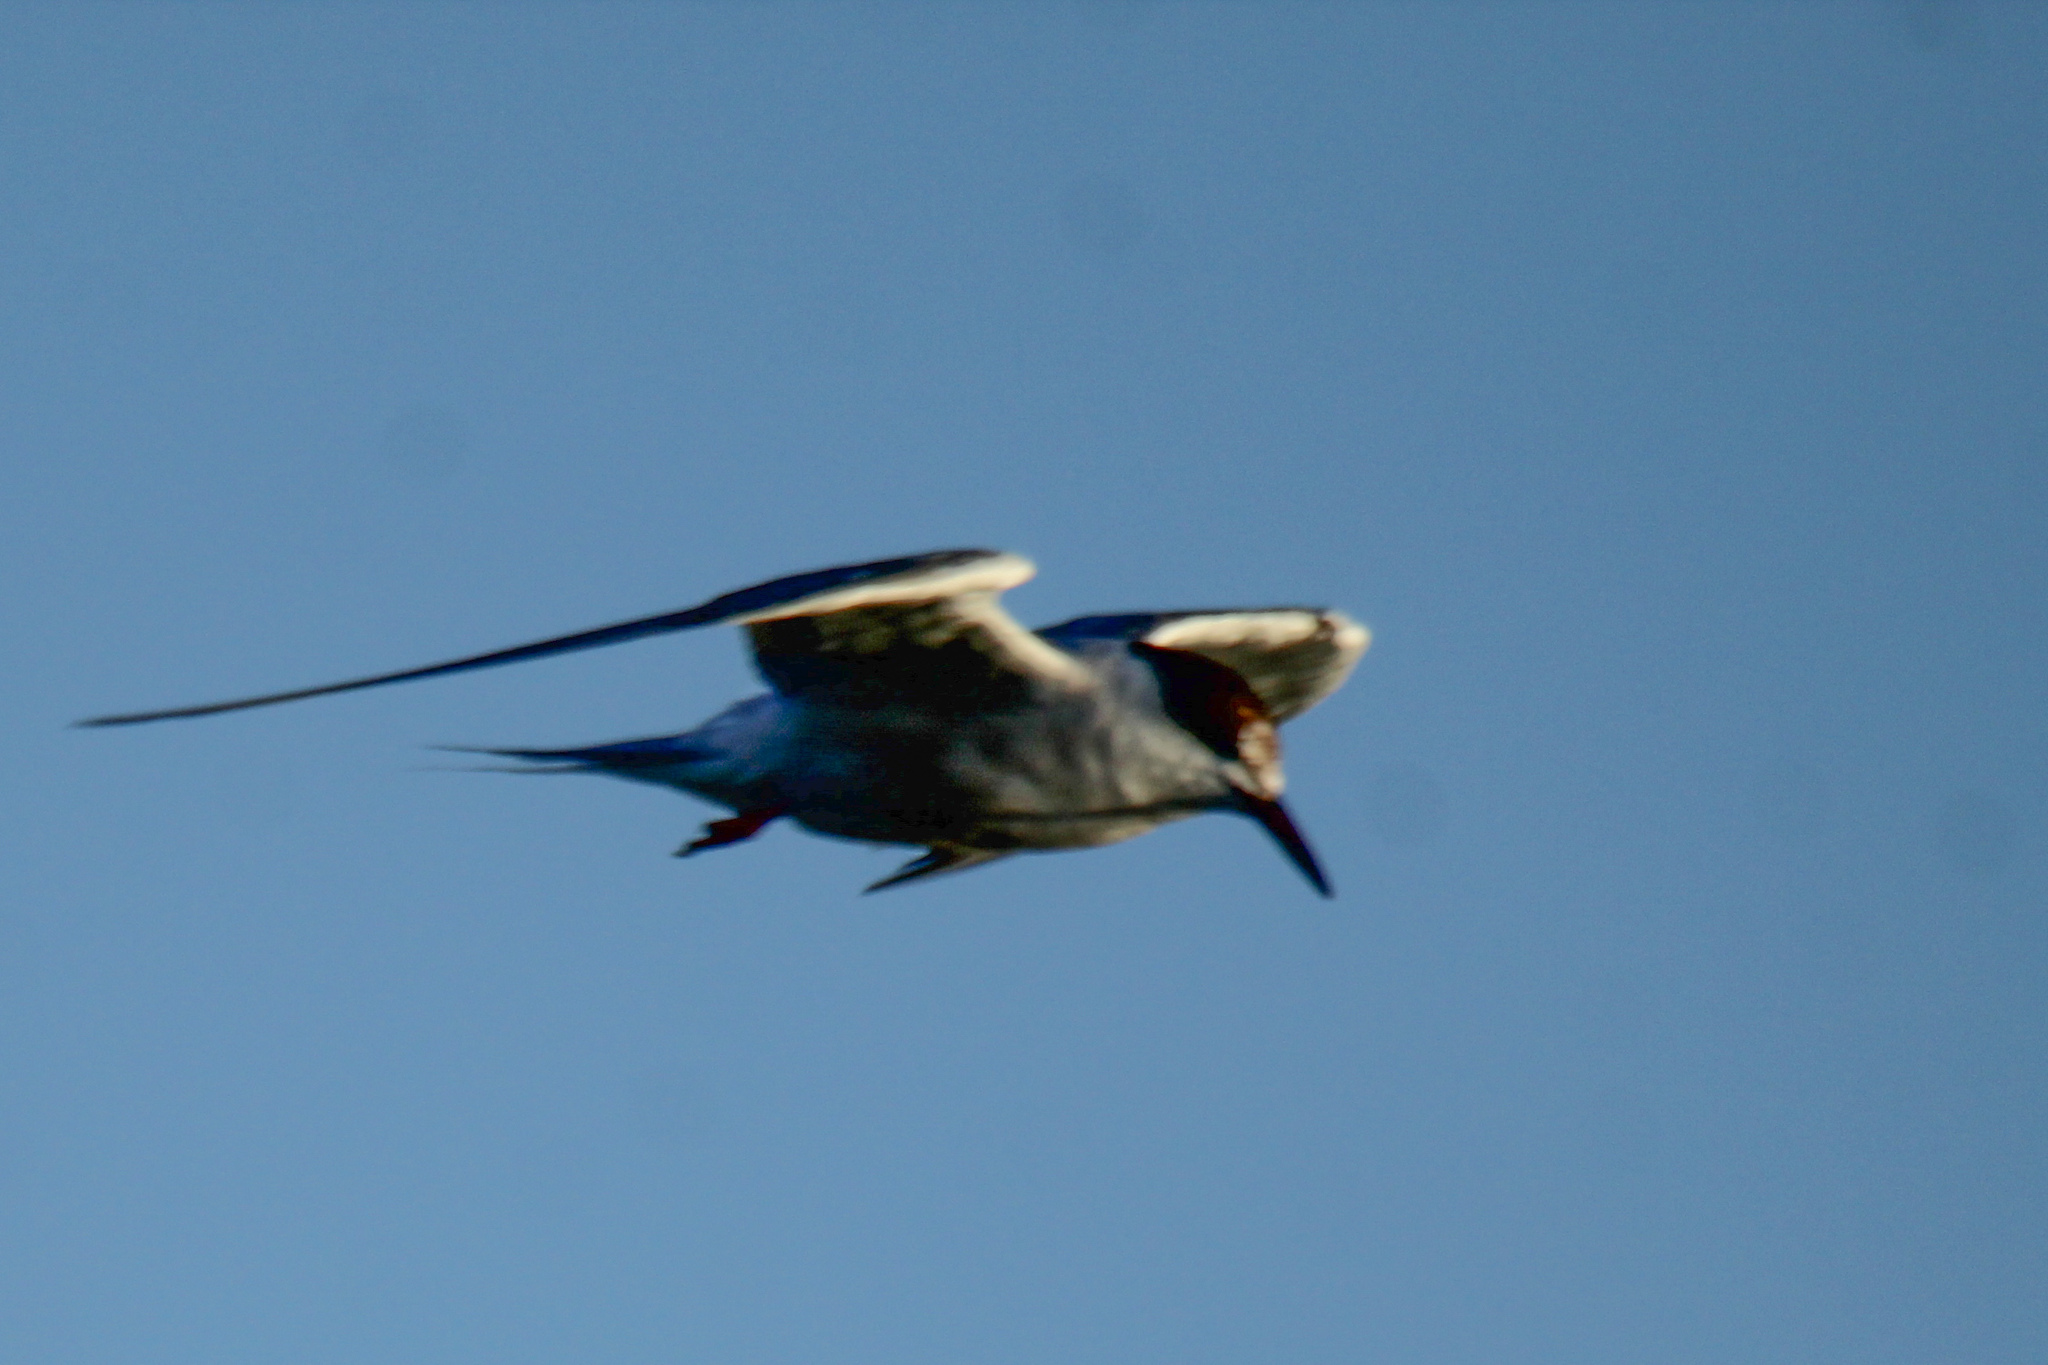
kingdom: Animalia
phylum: Chordata
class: Aves
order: Charadriiformes
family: Laridae
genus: Sterna
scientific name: Sterna hirundo
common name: Common tern
